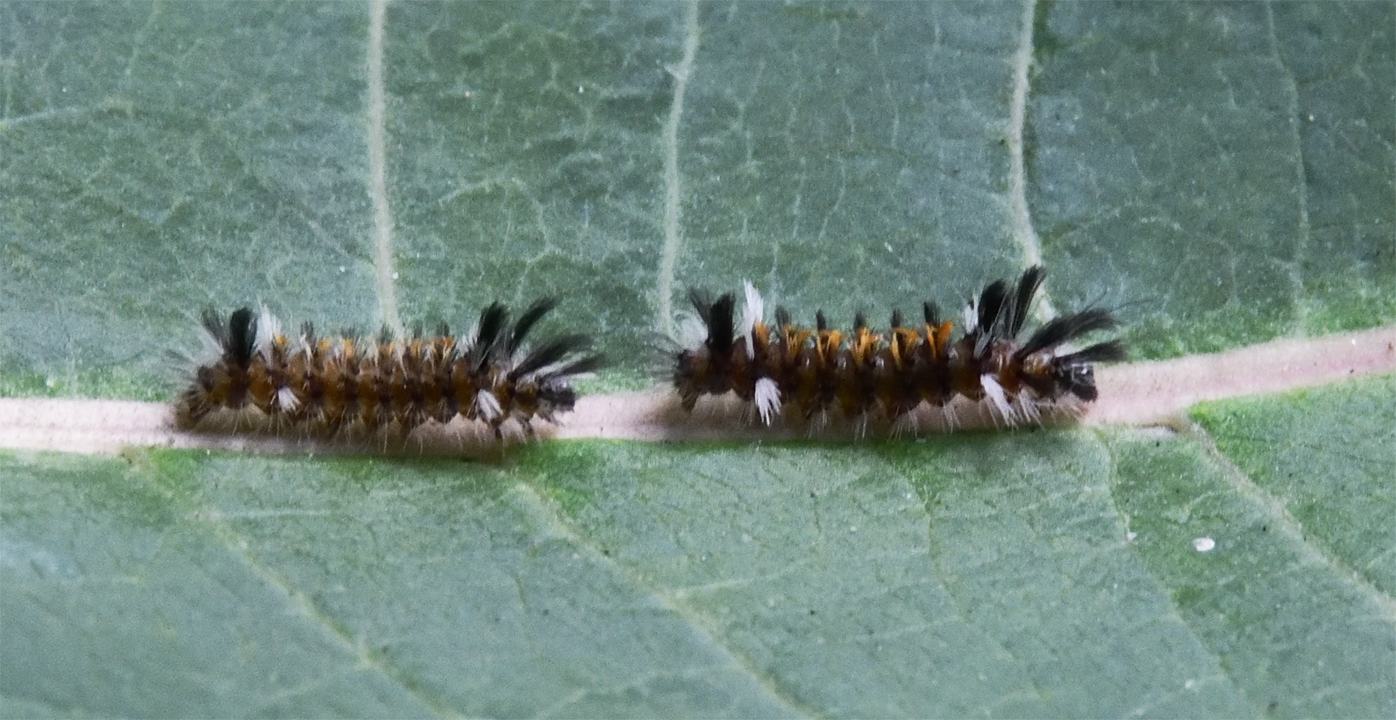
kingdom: Animalia
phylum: Arthropoda
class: Insecta
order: Lepidoptera
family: Erebidae
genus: Euchaetes
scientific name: Euchaetes egle
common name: Milkweed tussock moth
